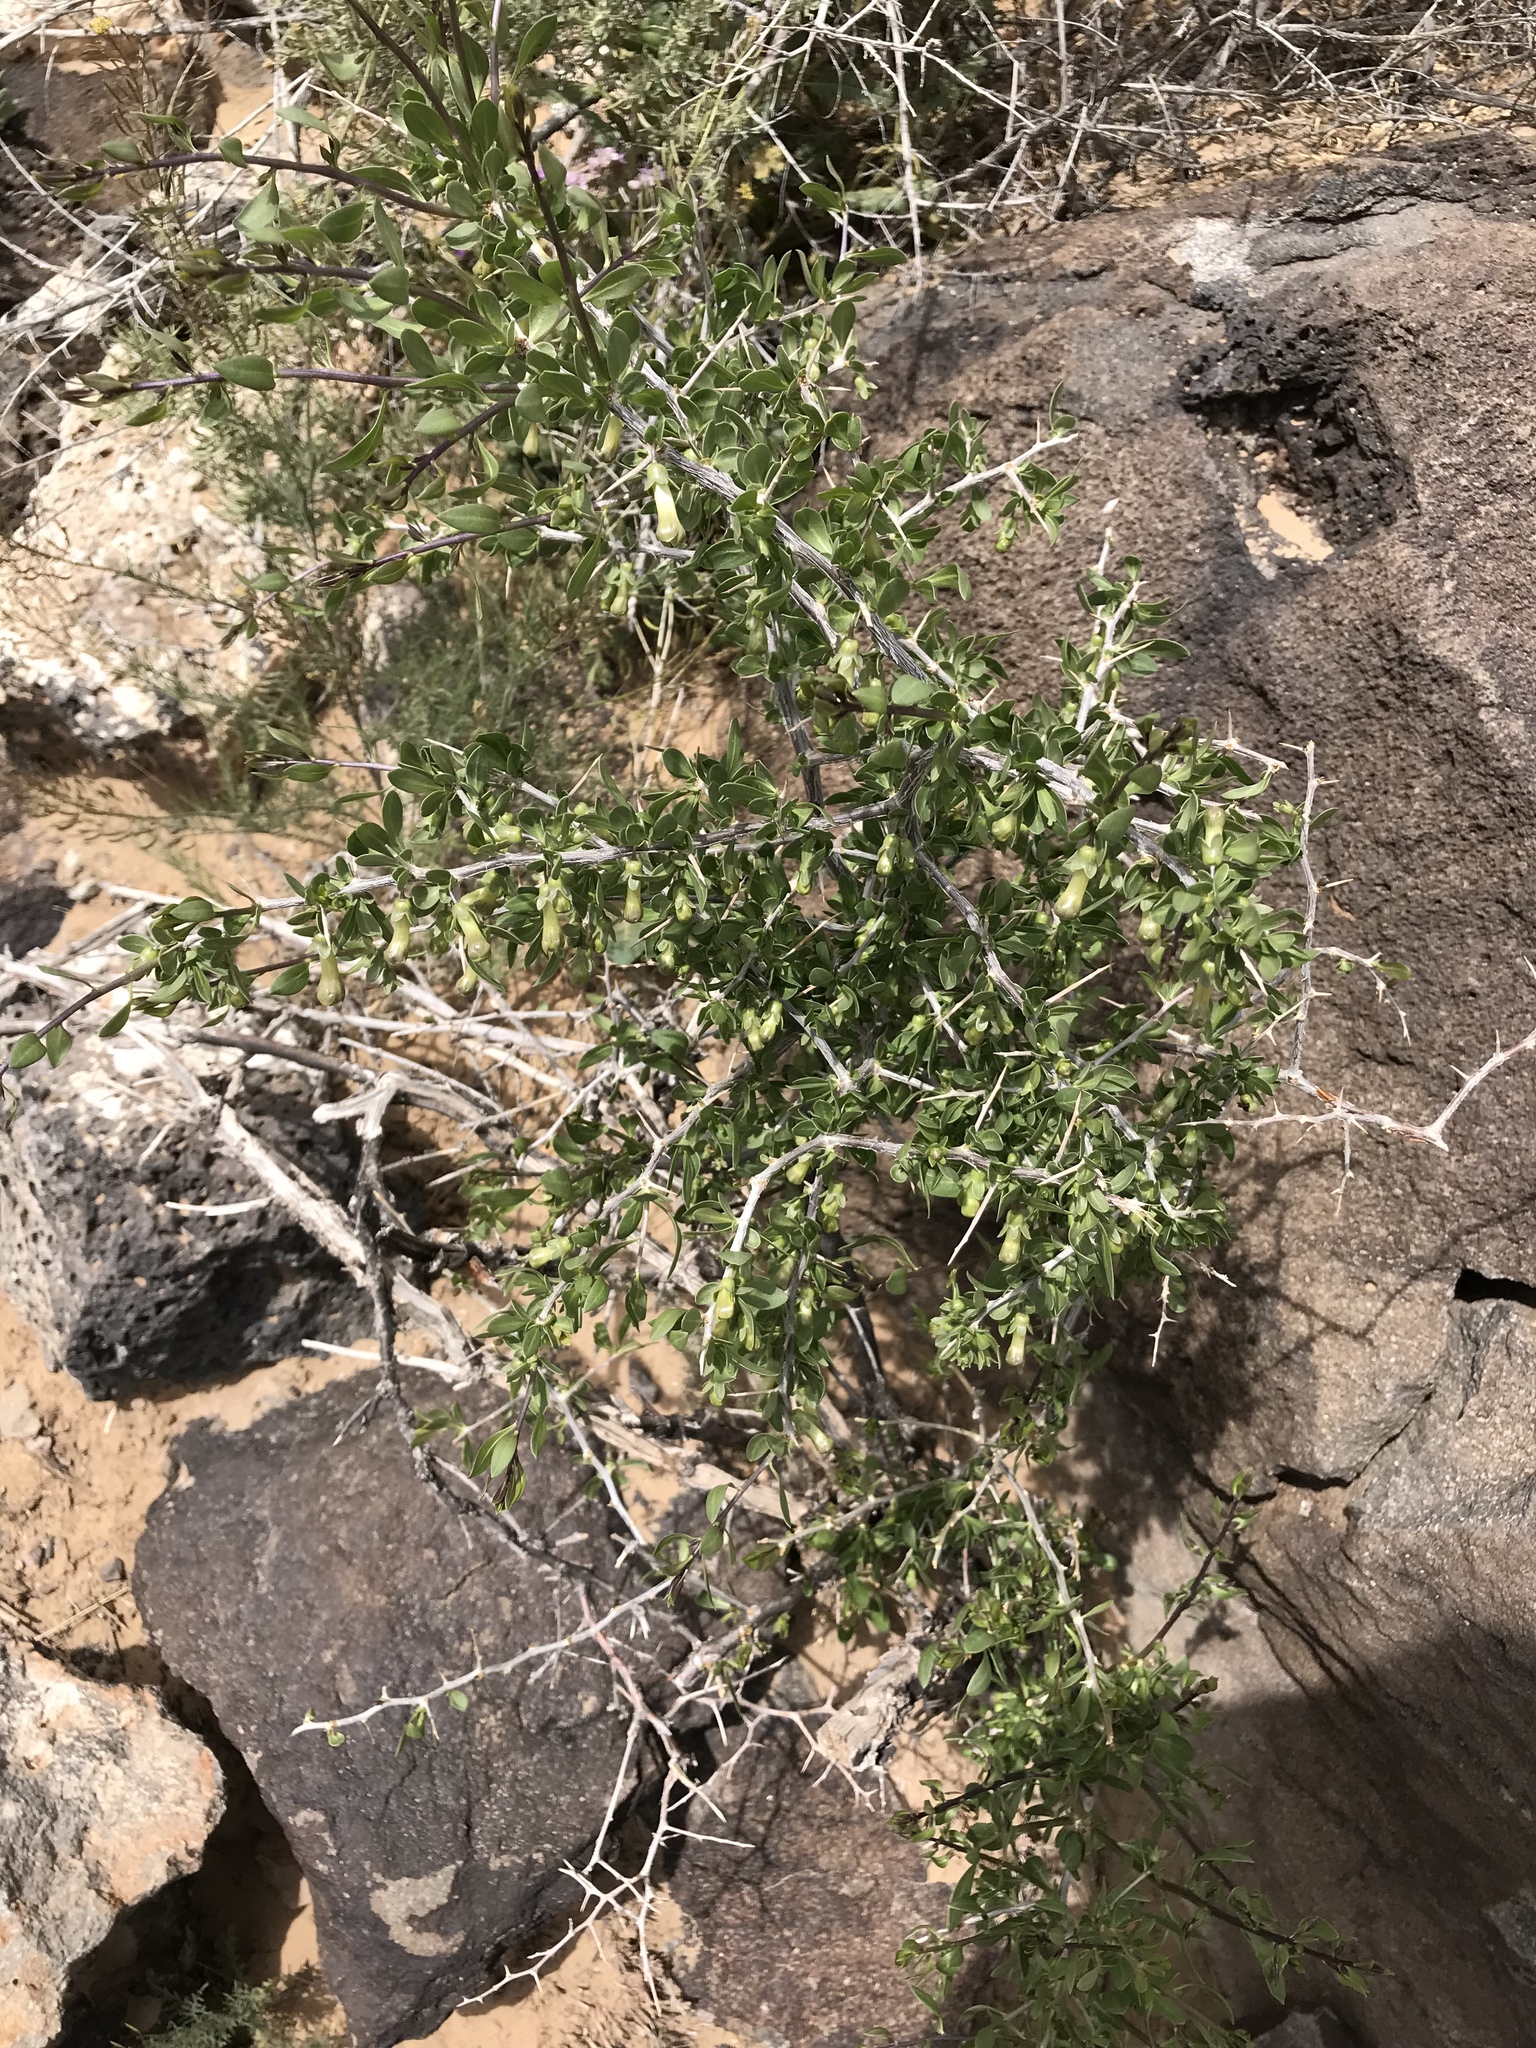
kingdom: Plantae
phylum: Tracheophyta
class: Magnoliopsida
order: Solanales
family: Solanaceae
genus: Lycium
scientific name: Lycium pallidum
